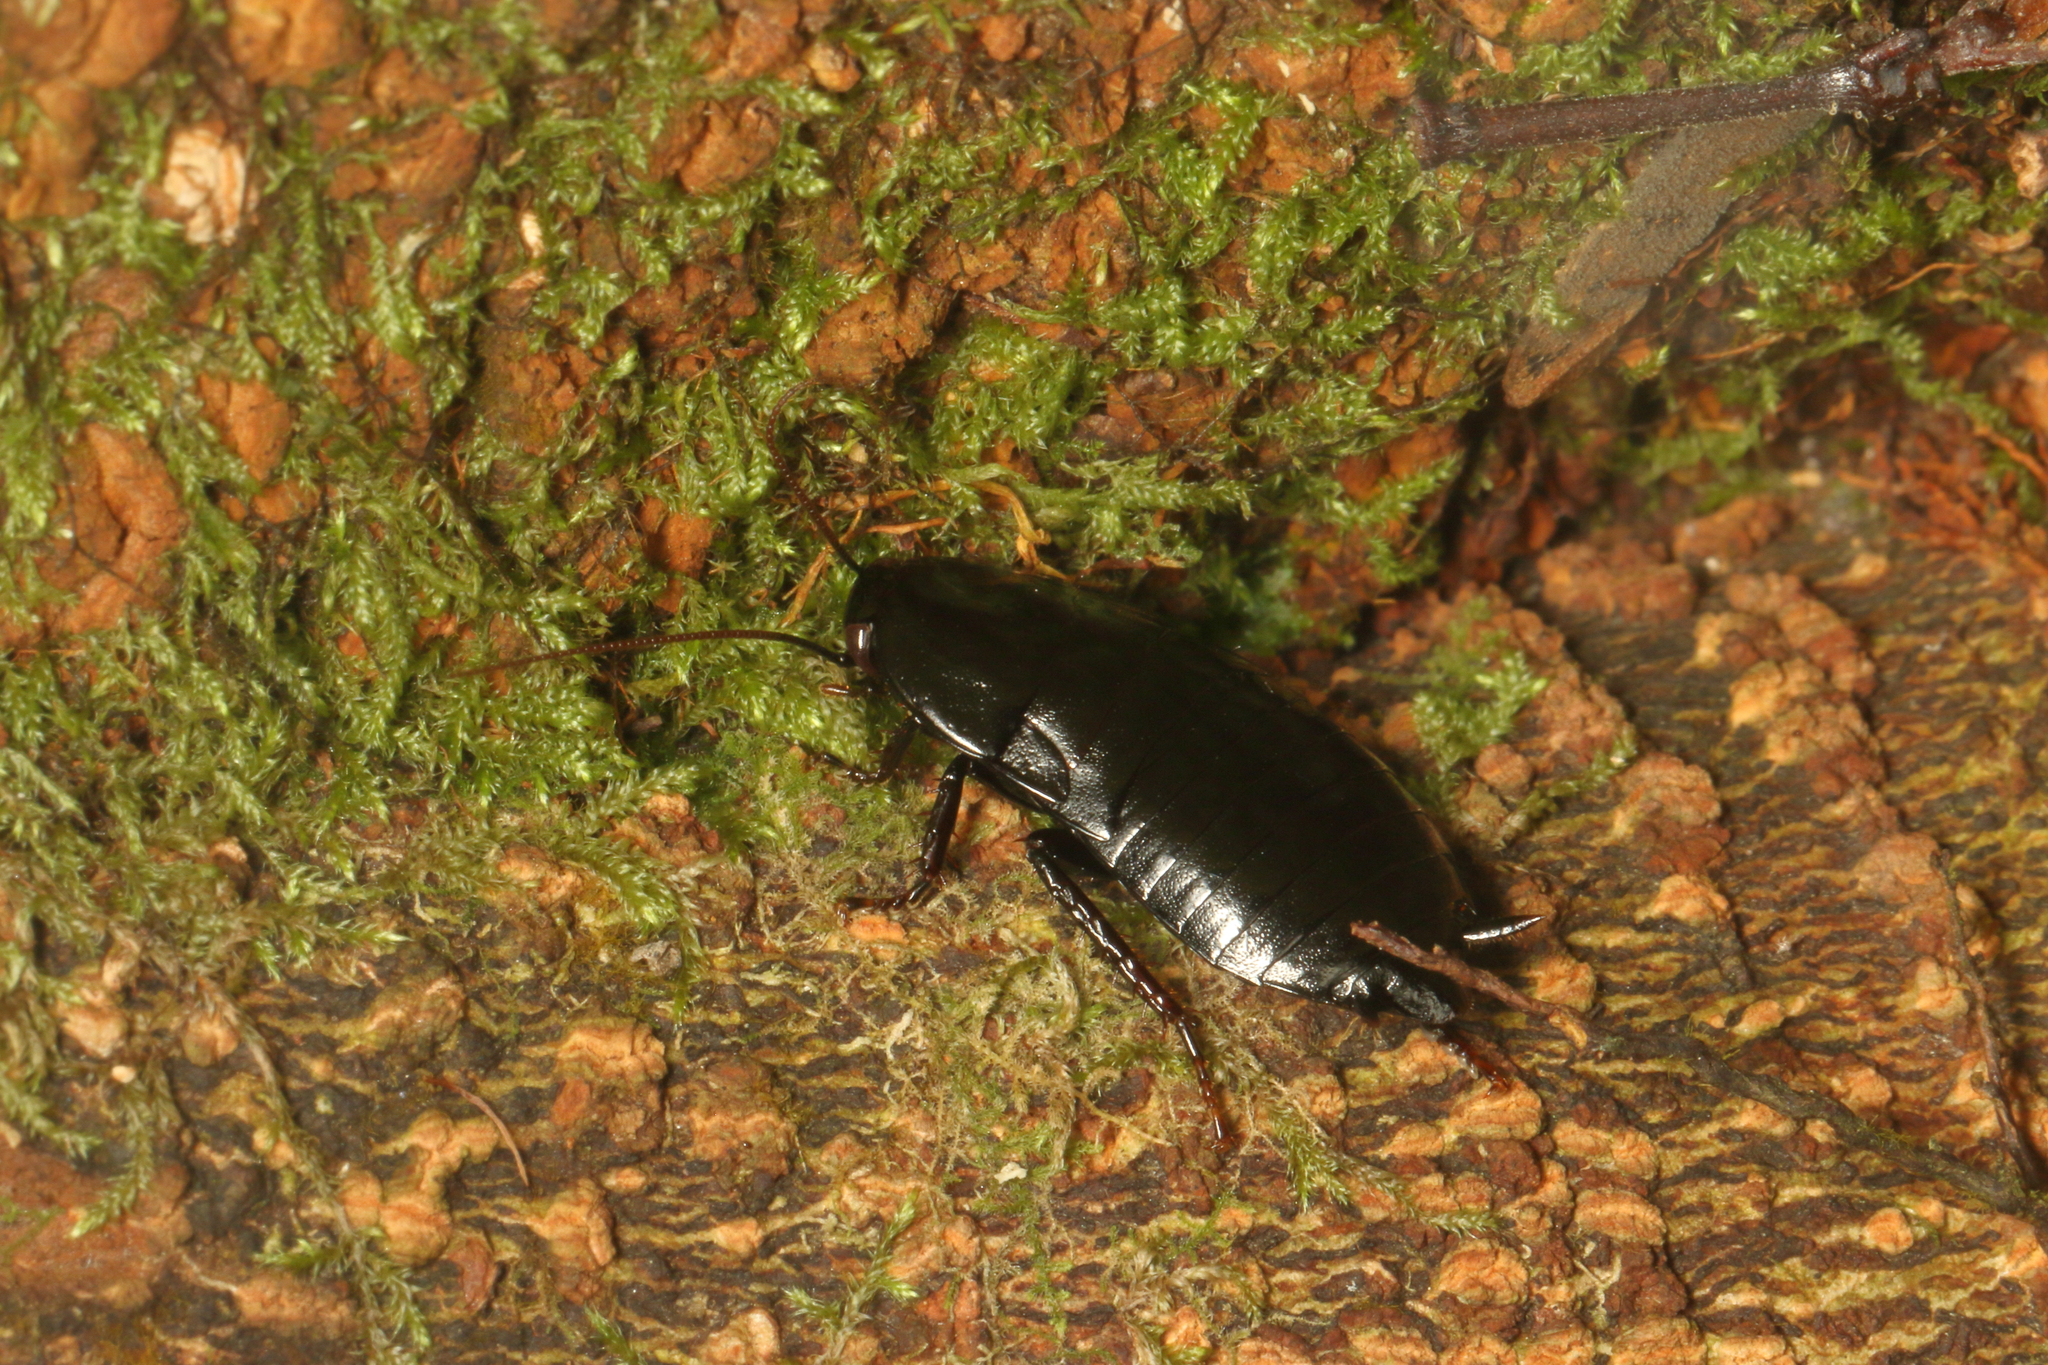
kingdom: Animalia
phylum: Arthropoda
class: Insecta
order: Blattodea
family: Blattidae
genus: Maoriblatta
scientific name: Maoriblatta novaeseelandiae
